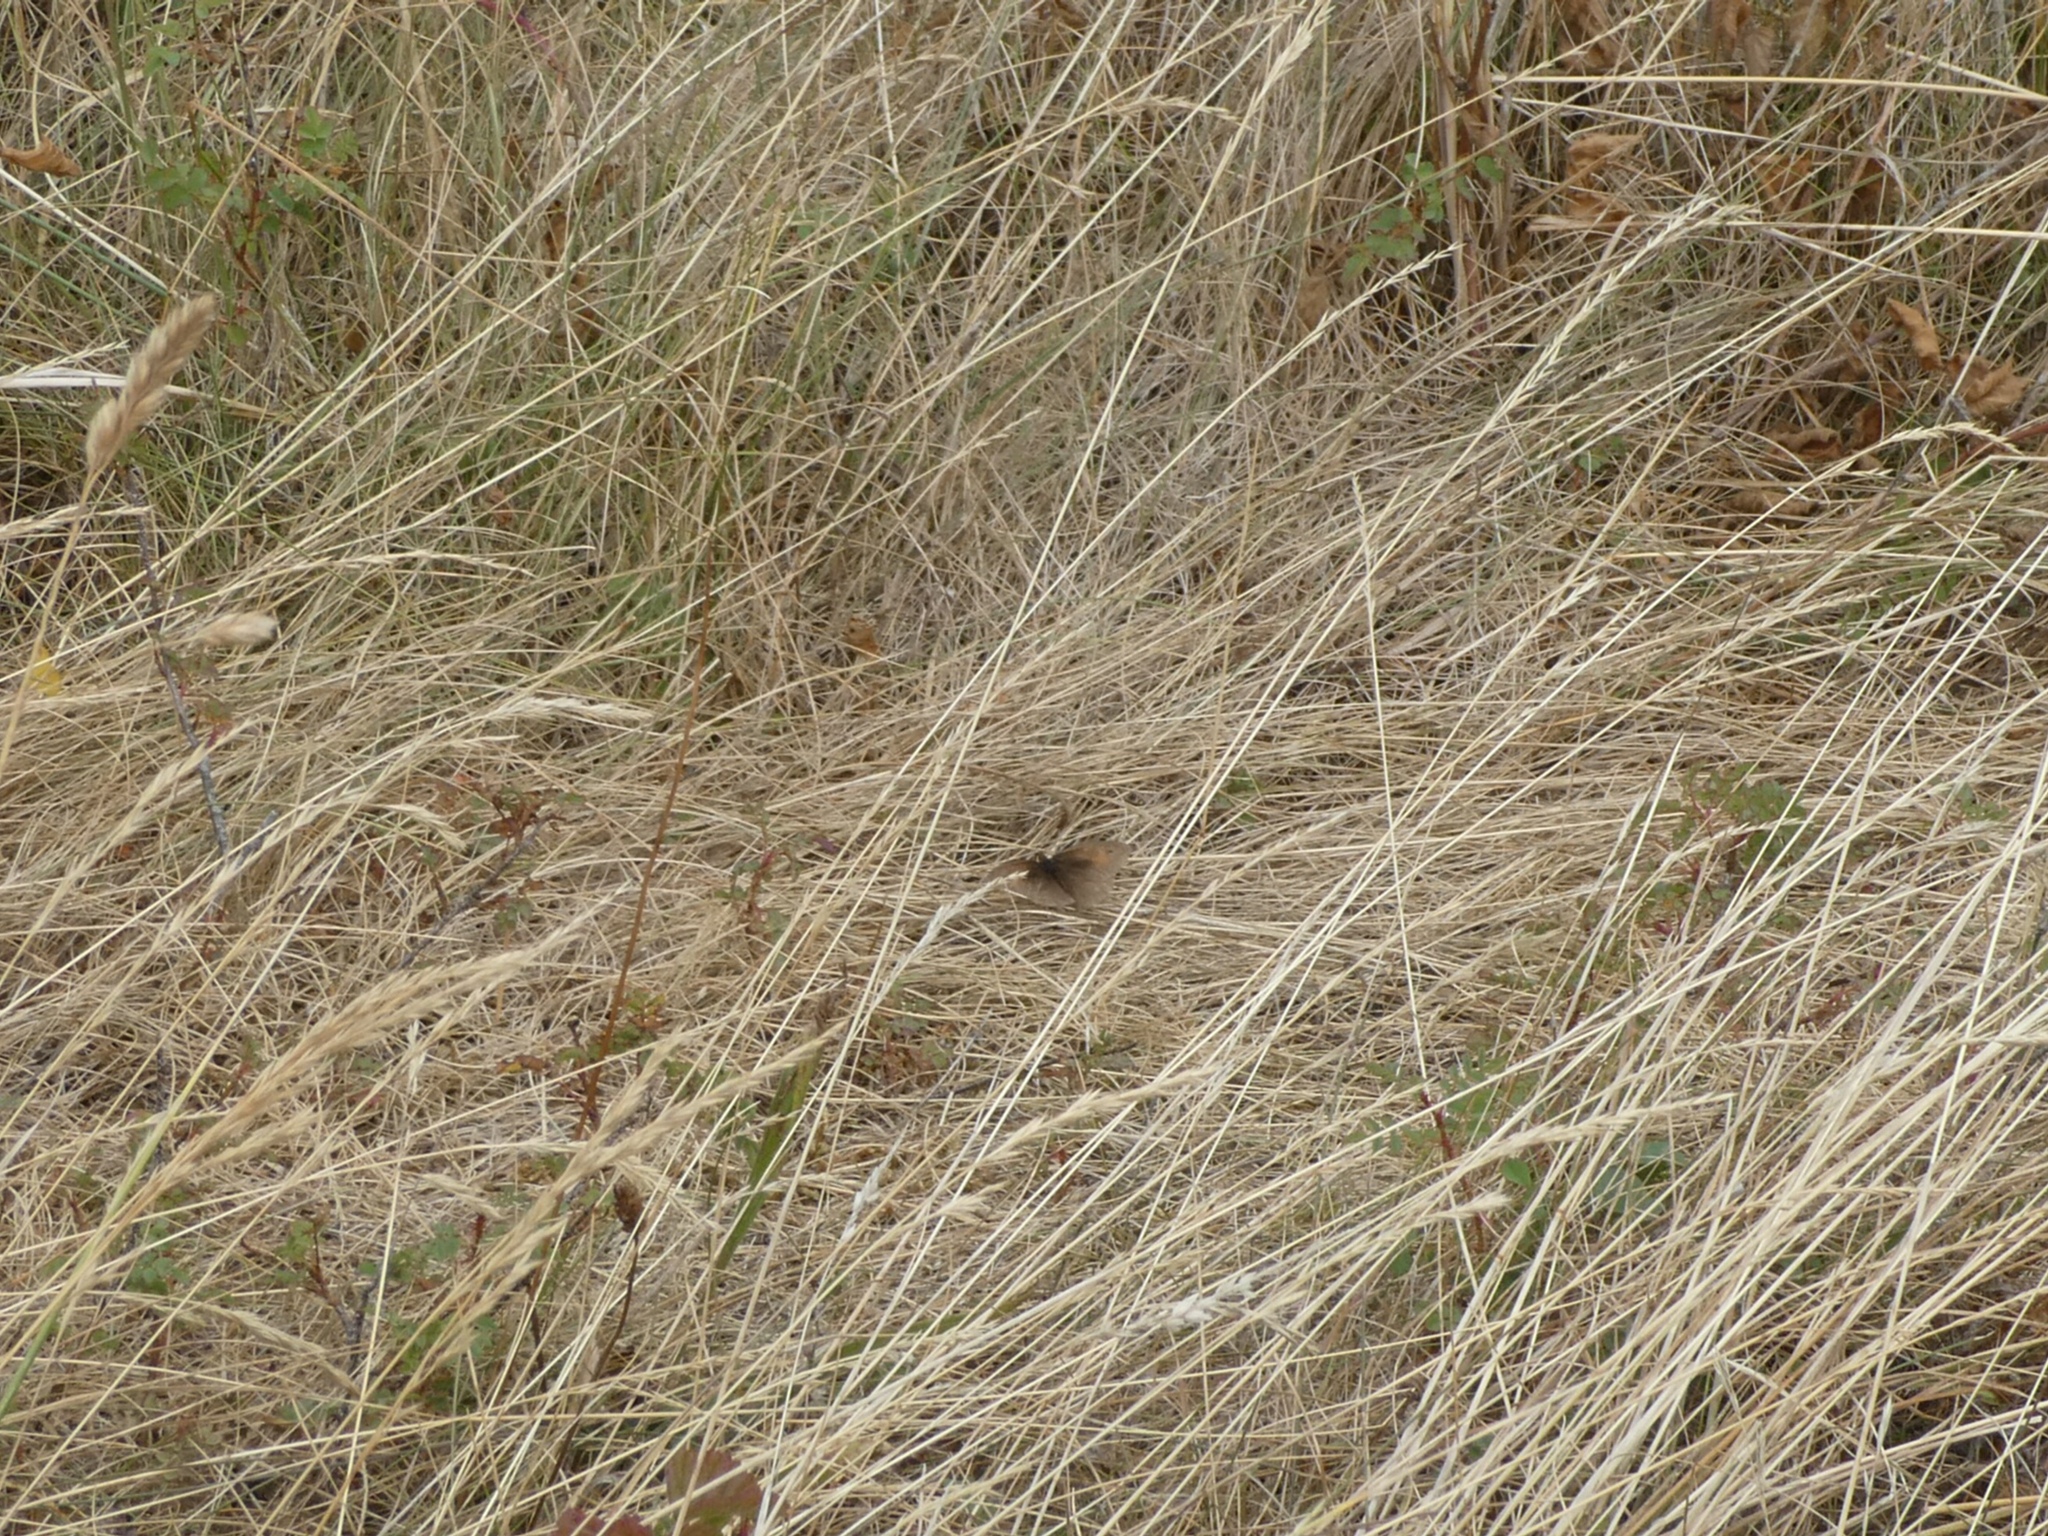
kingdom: Animalia
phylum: Arthropoda
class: Insecta
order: Lepidoptera
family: Nymphalidae
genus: Maniola
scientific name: Maniola jurtina
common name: Meadow brown
